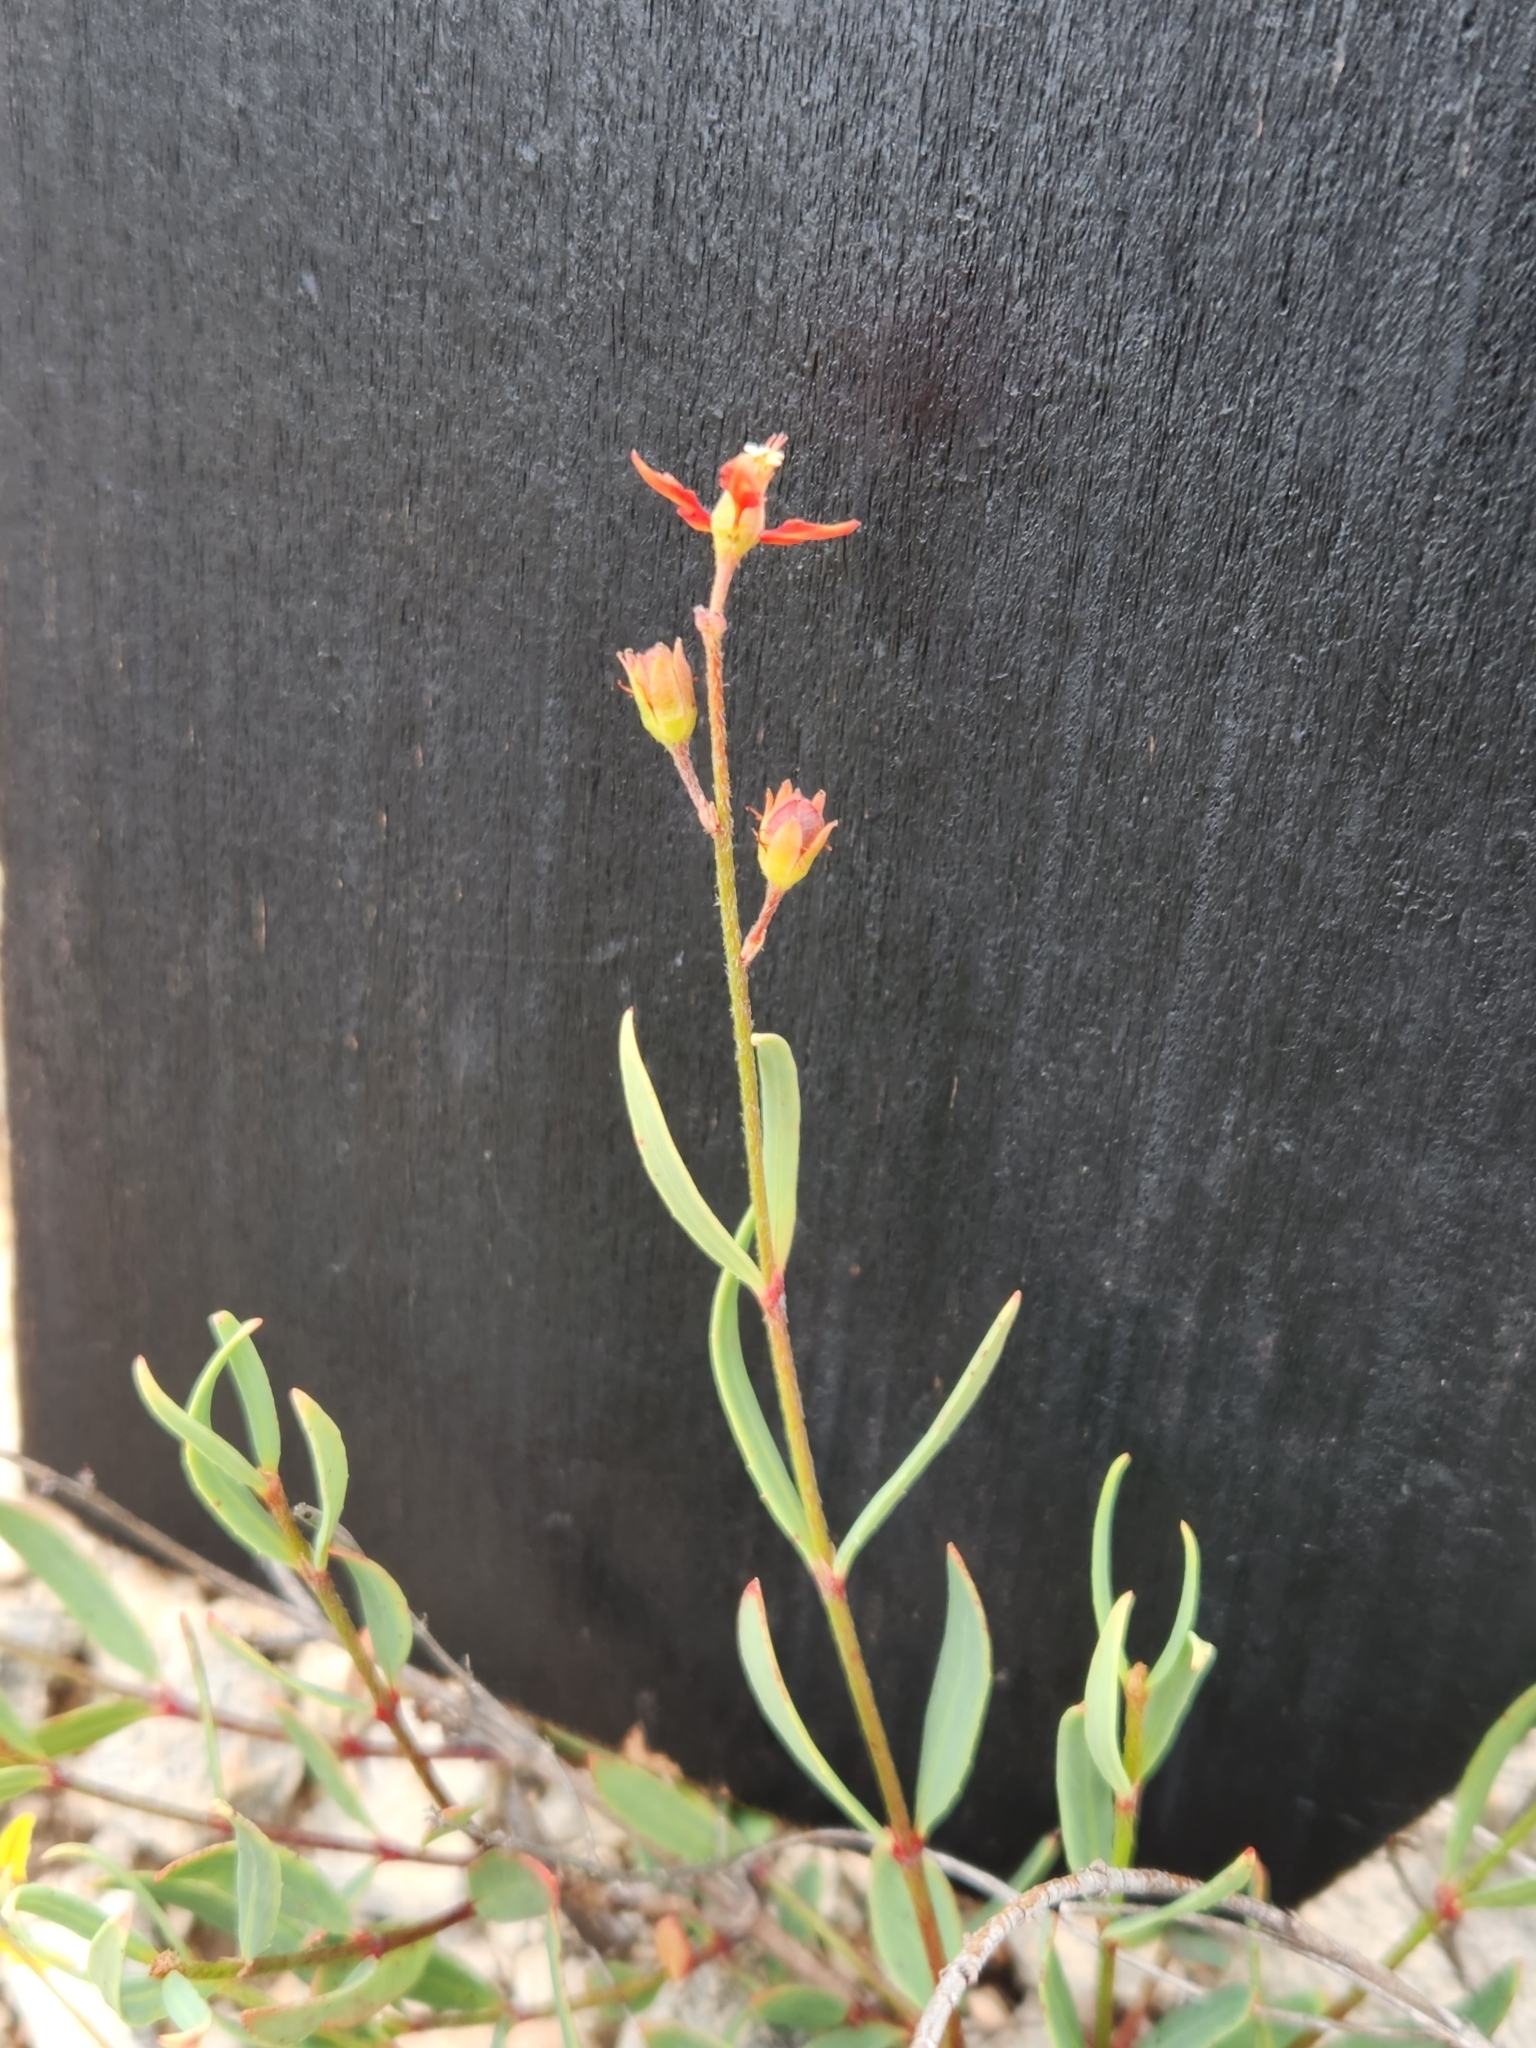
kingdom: Plantae
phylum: Tracheophyta
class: Magnoliopsida
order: Malpighiales
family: Malpighiaceae
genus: Galphimia
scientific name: Galphimia angustifolia
